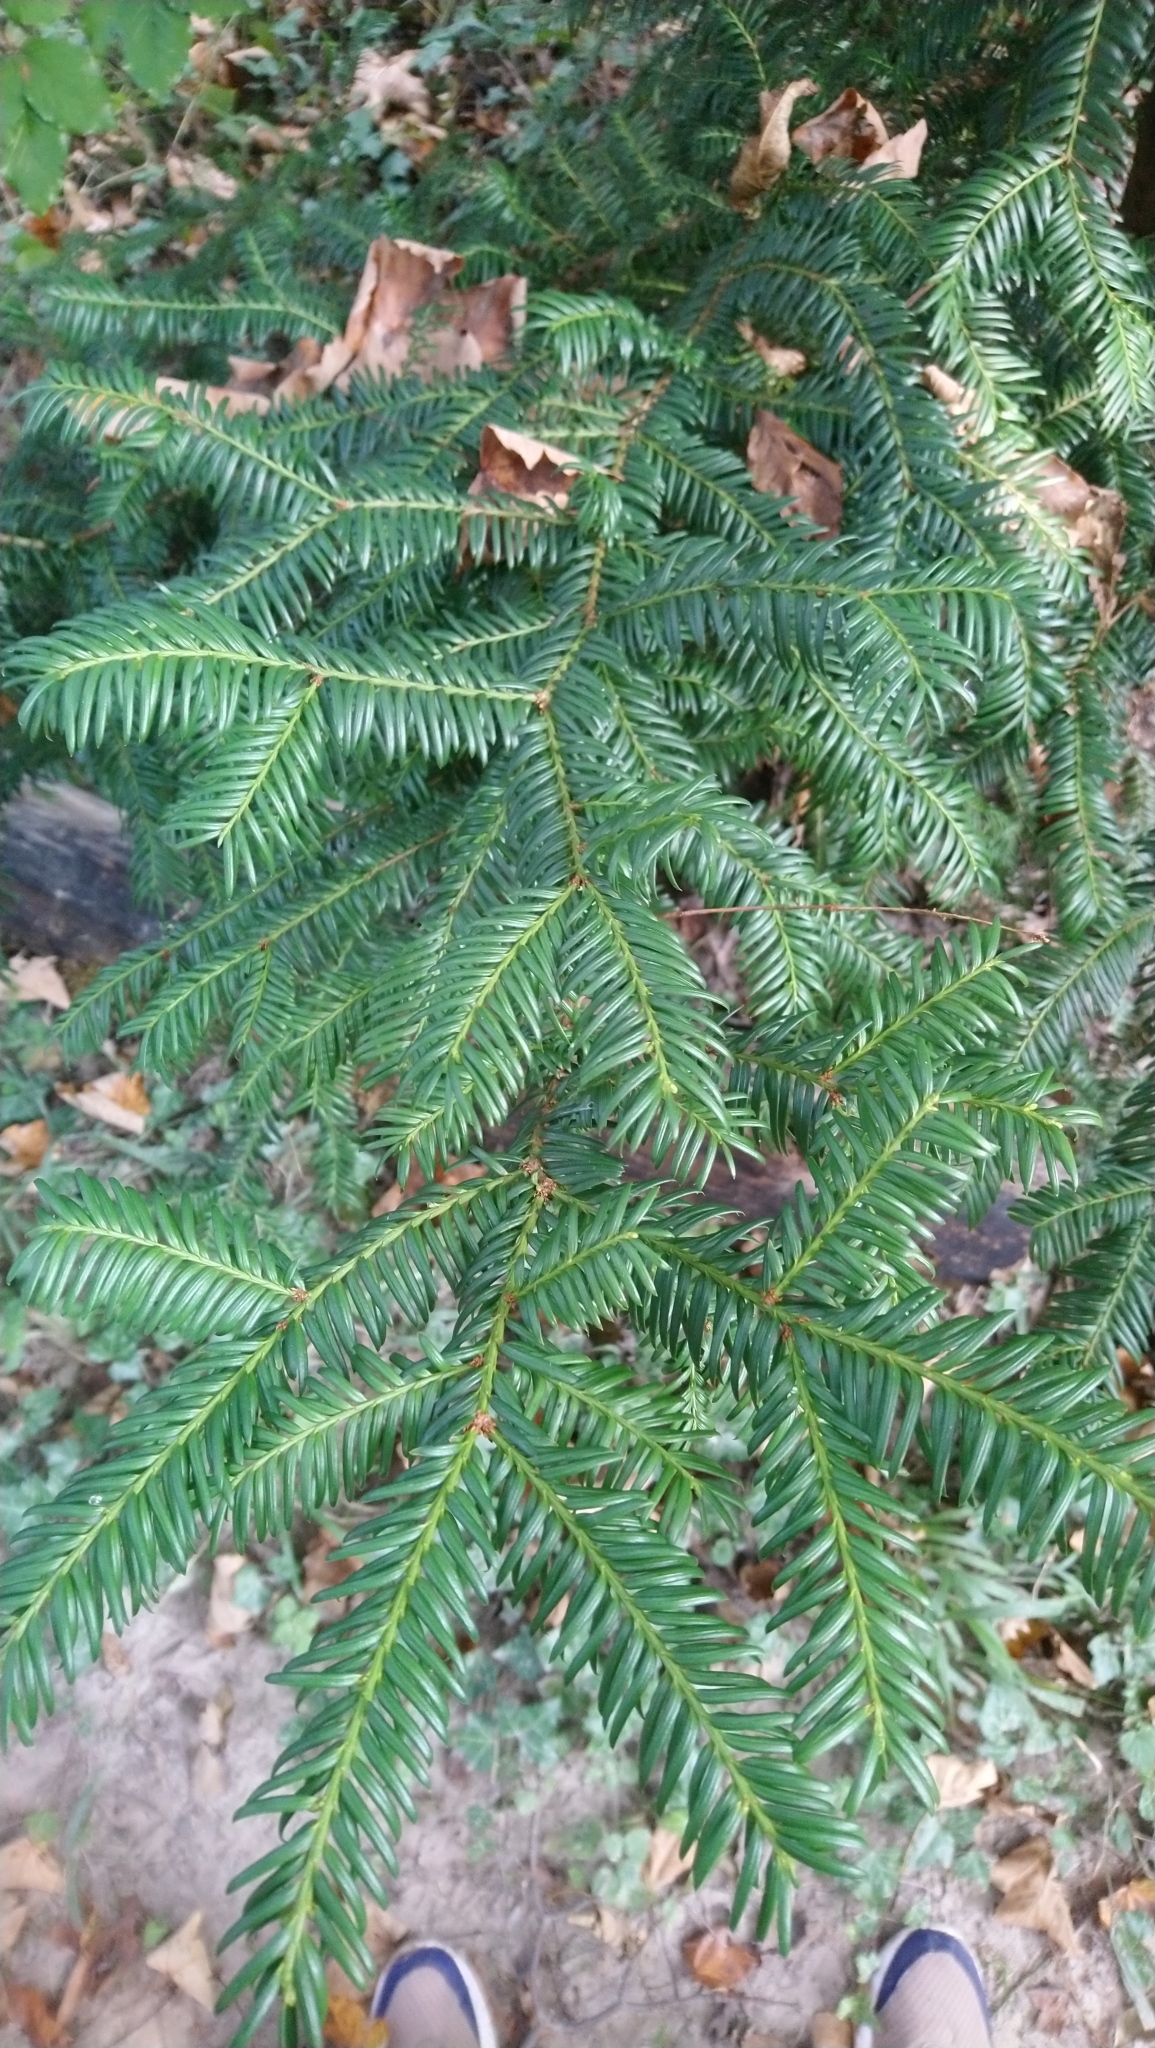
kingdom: Plantae
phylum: Tracheophyta
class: Pinopsida
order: Pinales
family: Taxaceae
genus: Taxus
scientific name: Taxus baccata
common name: Yew
